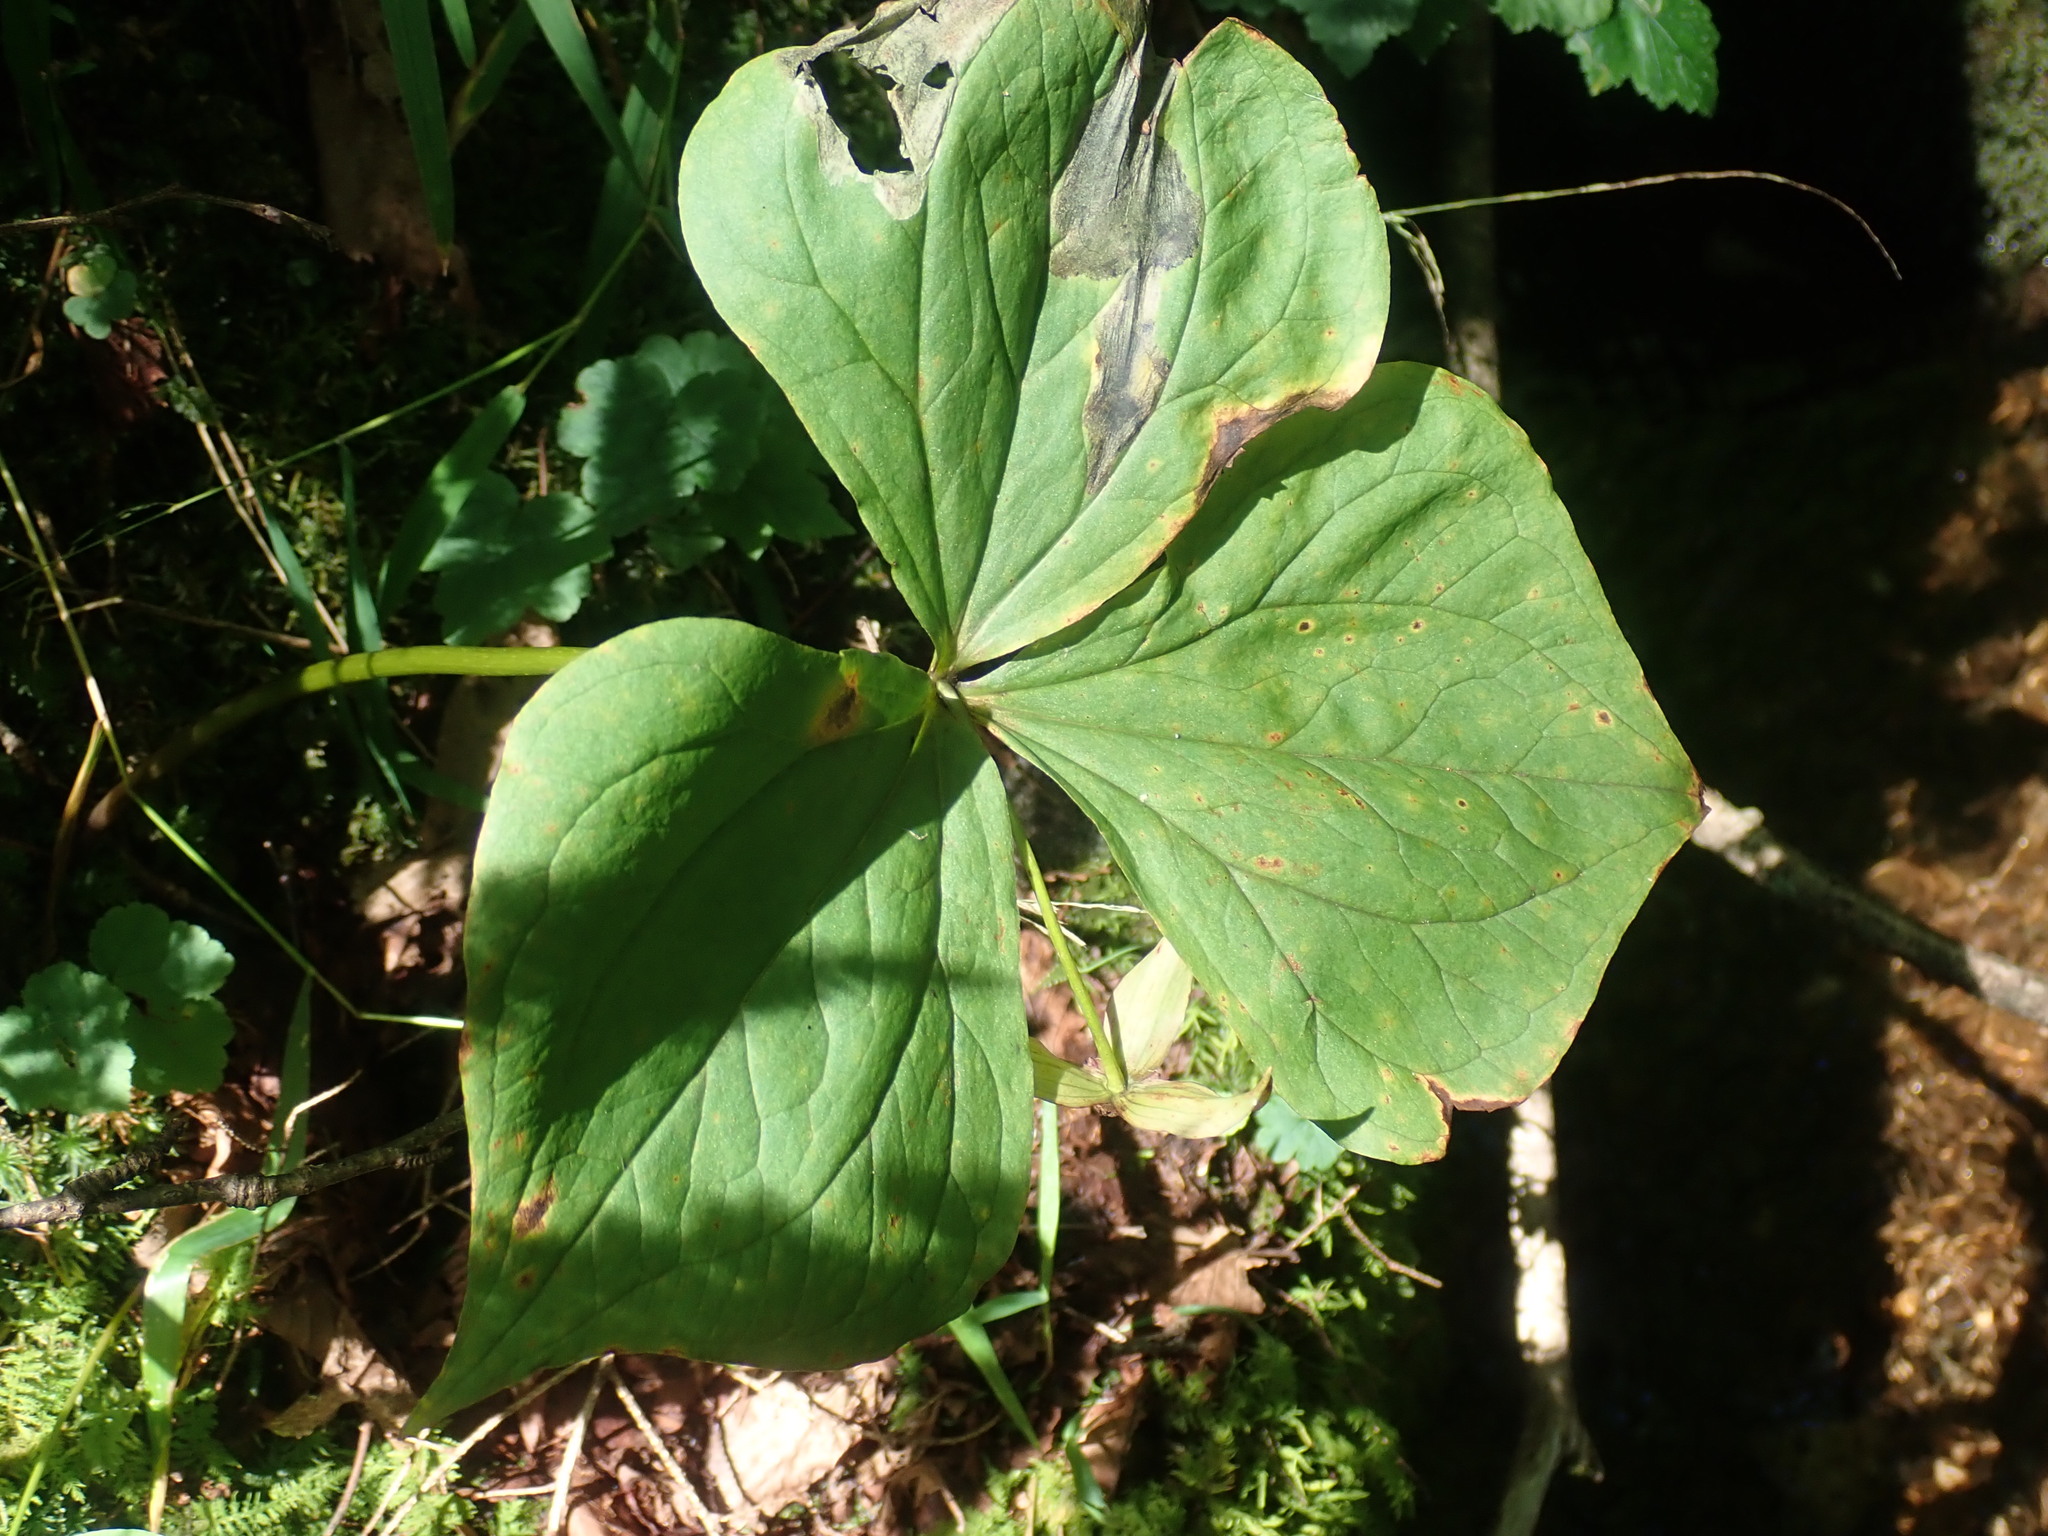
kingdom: Plantae
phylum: Tracheophyta
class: Liliopsida
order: Liliales
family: Melanthiaceae
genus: Trillium
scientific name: Trillium erectum
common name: Purple trillium
